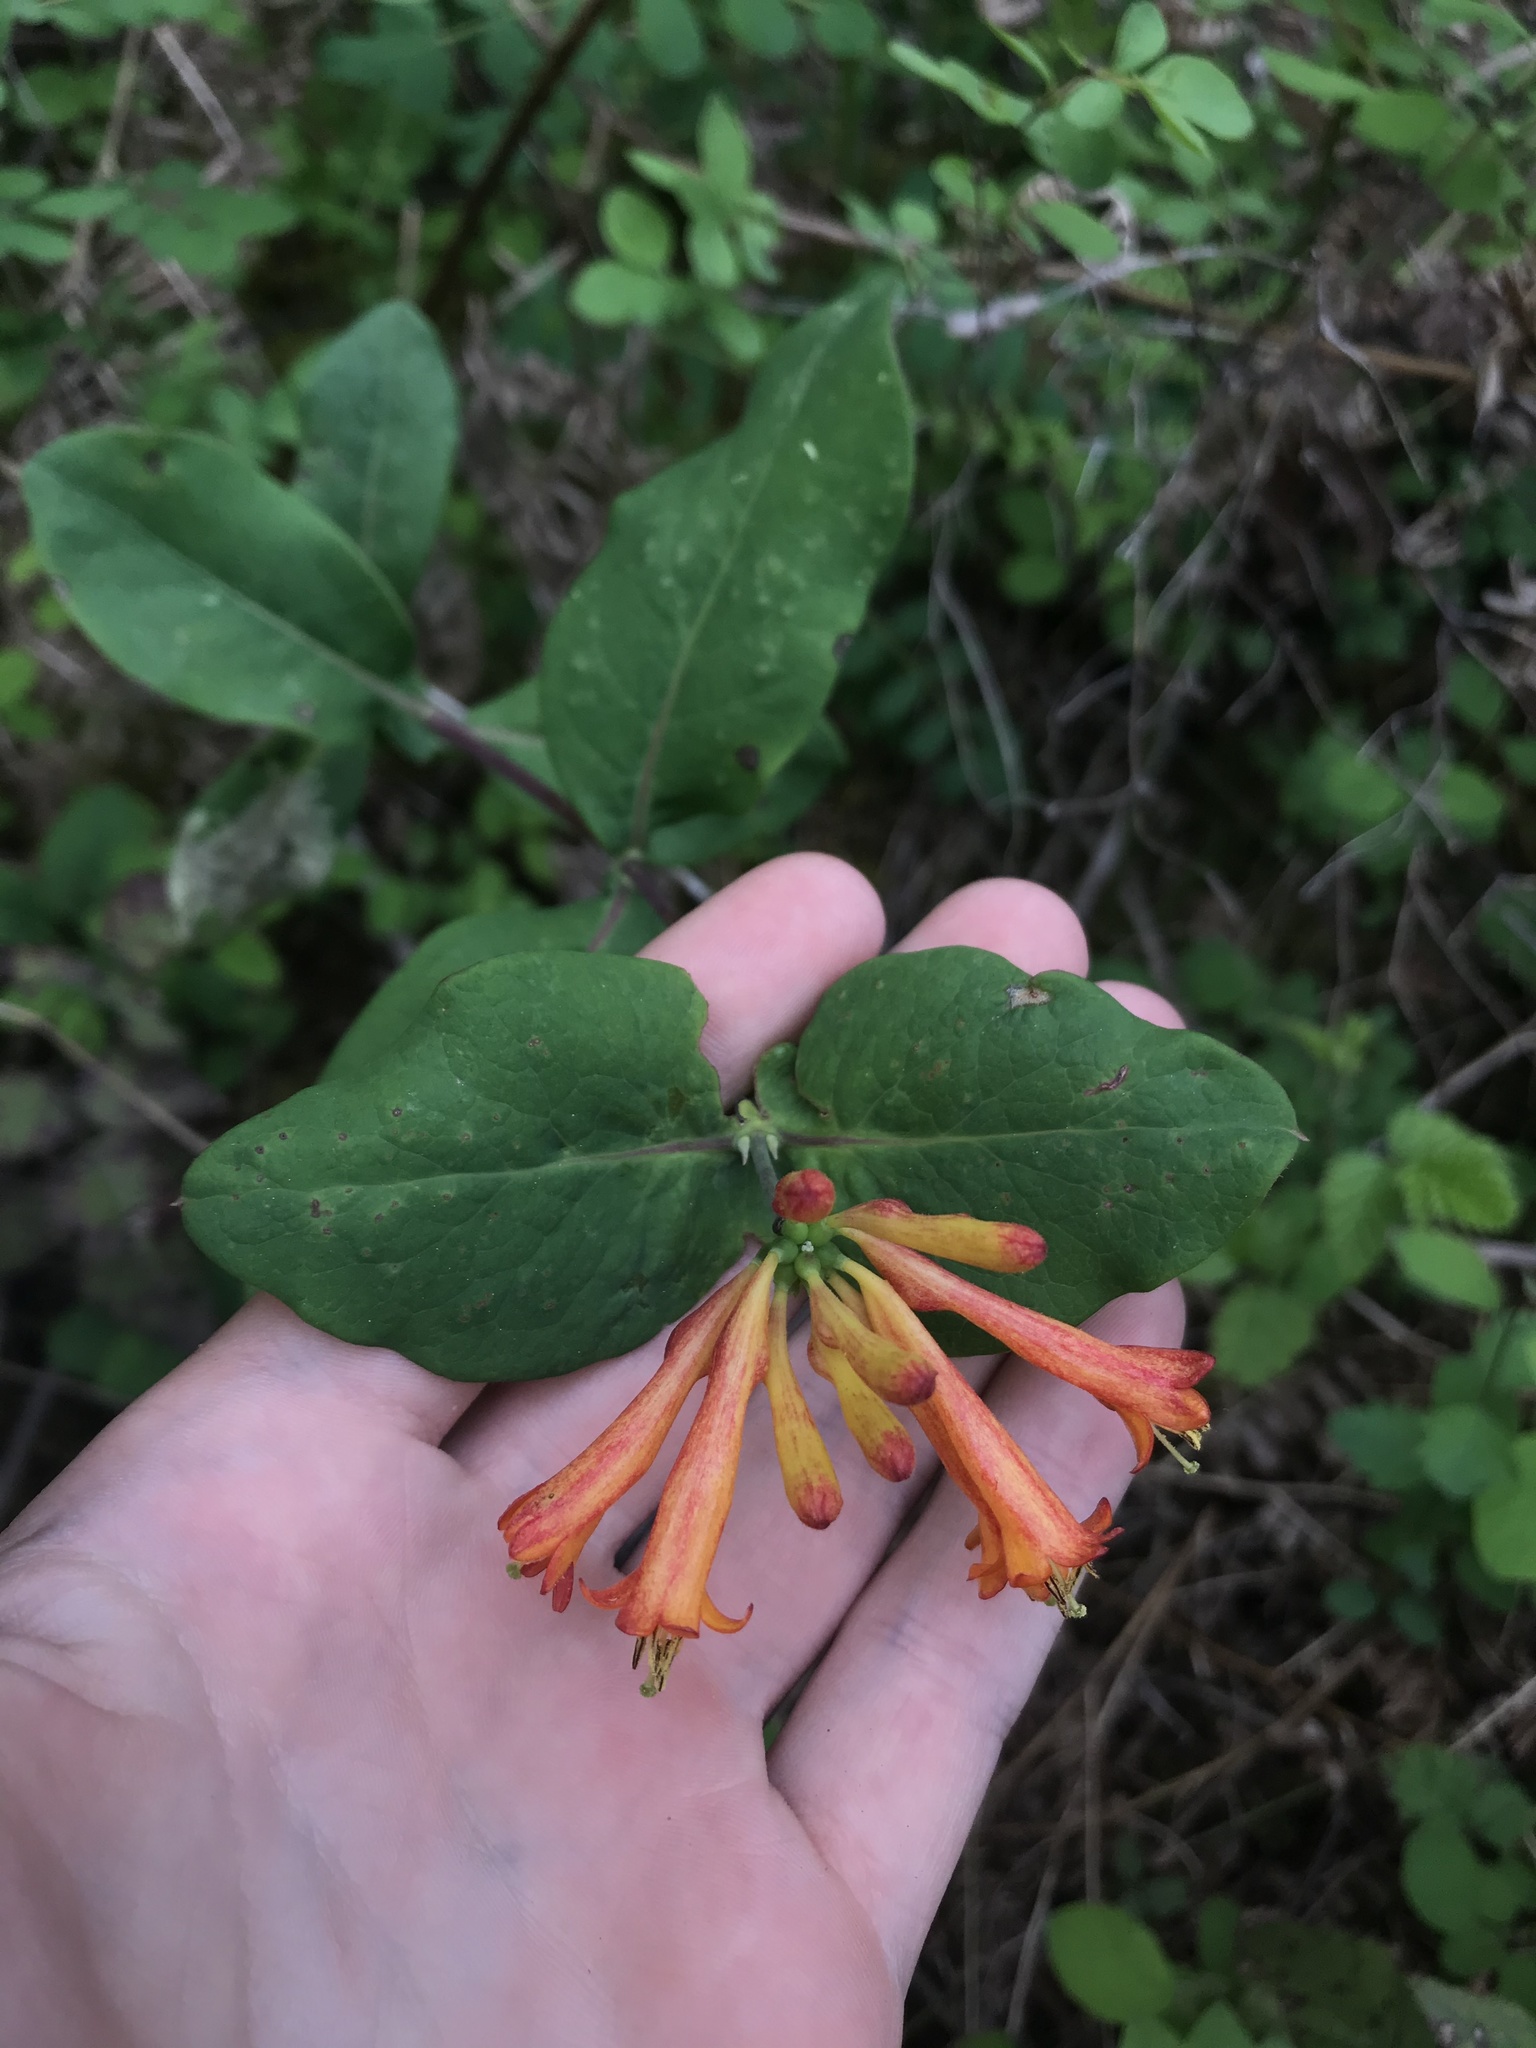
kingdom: Plantae
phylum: Tracheophyta
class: Magnoliopsida
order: Dipsacales
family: Caprifoliaceae
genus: Lonicera
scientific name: Lonicera ciliosa
